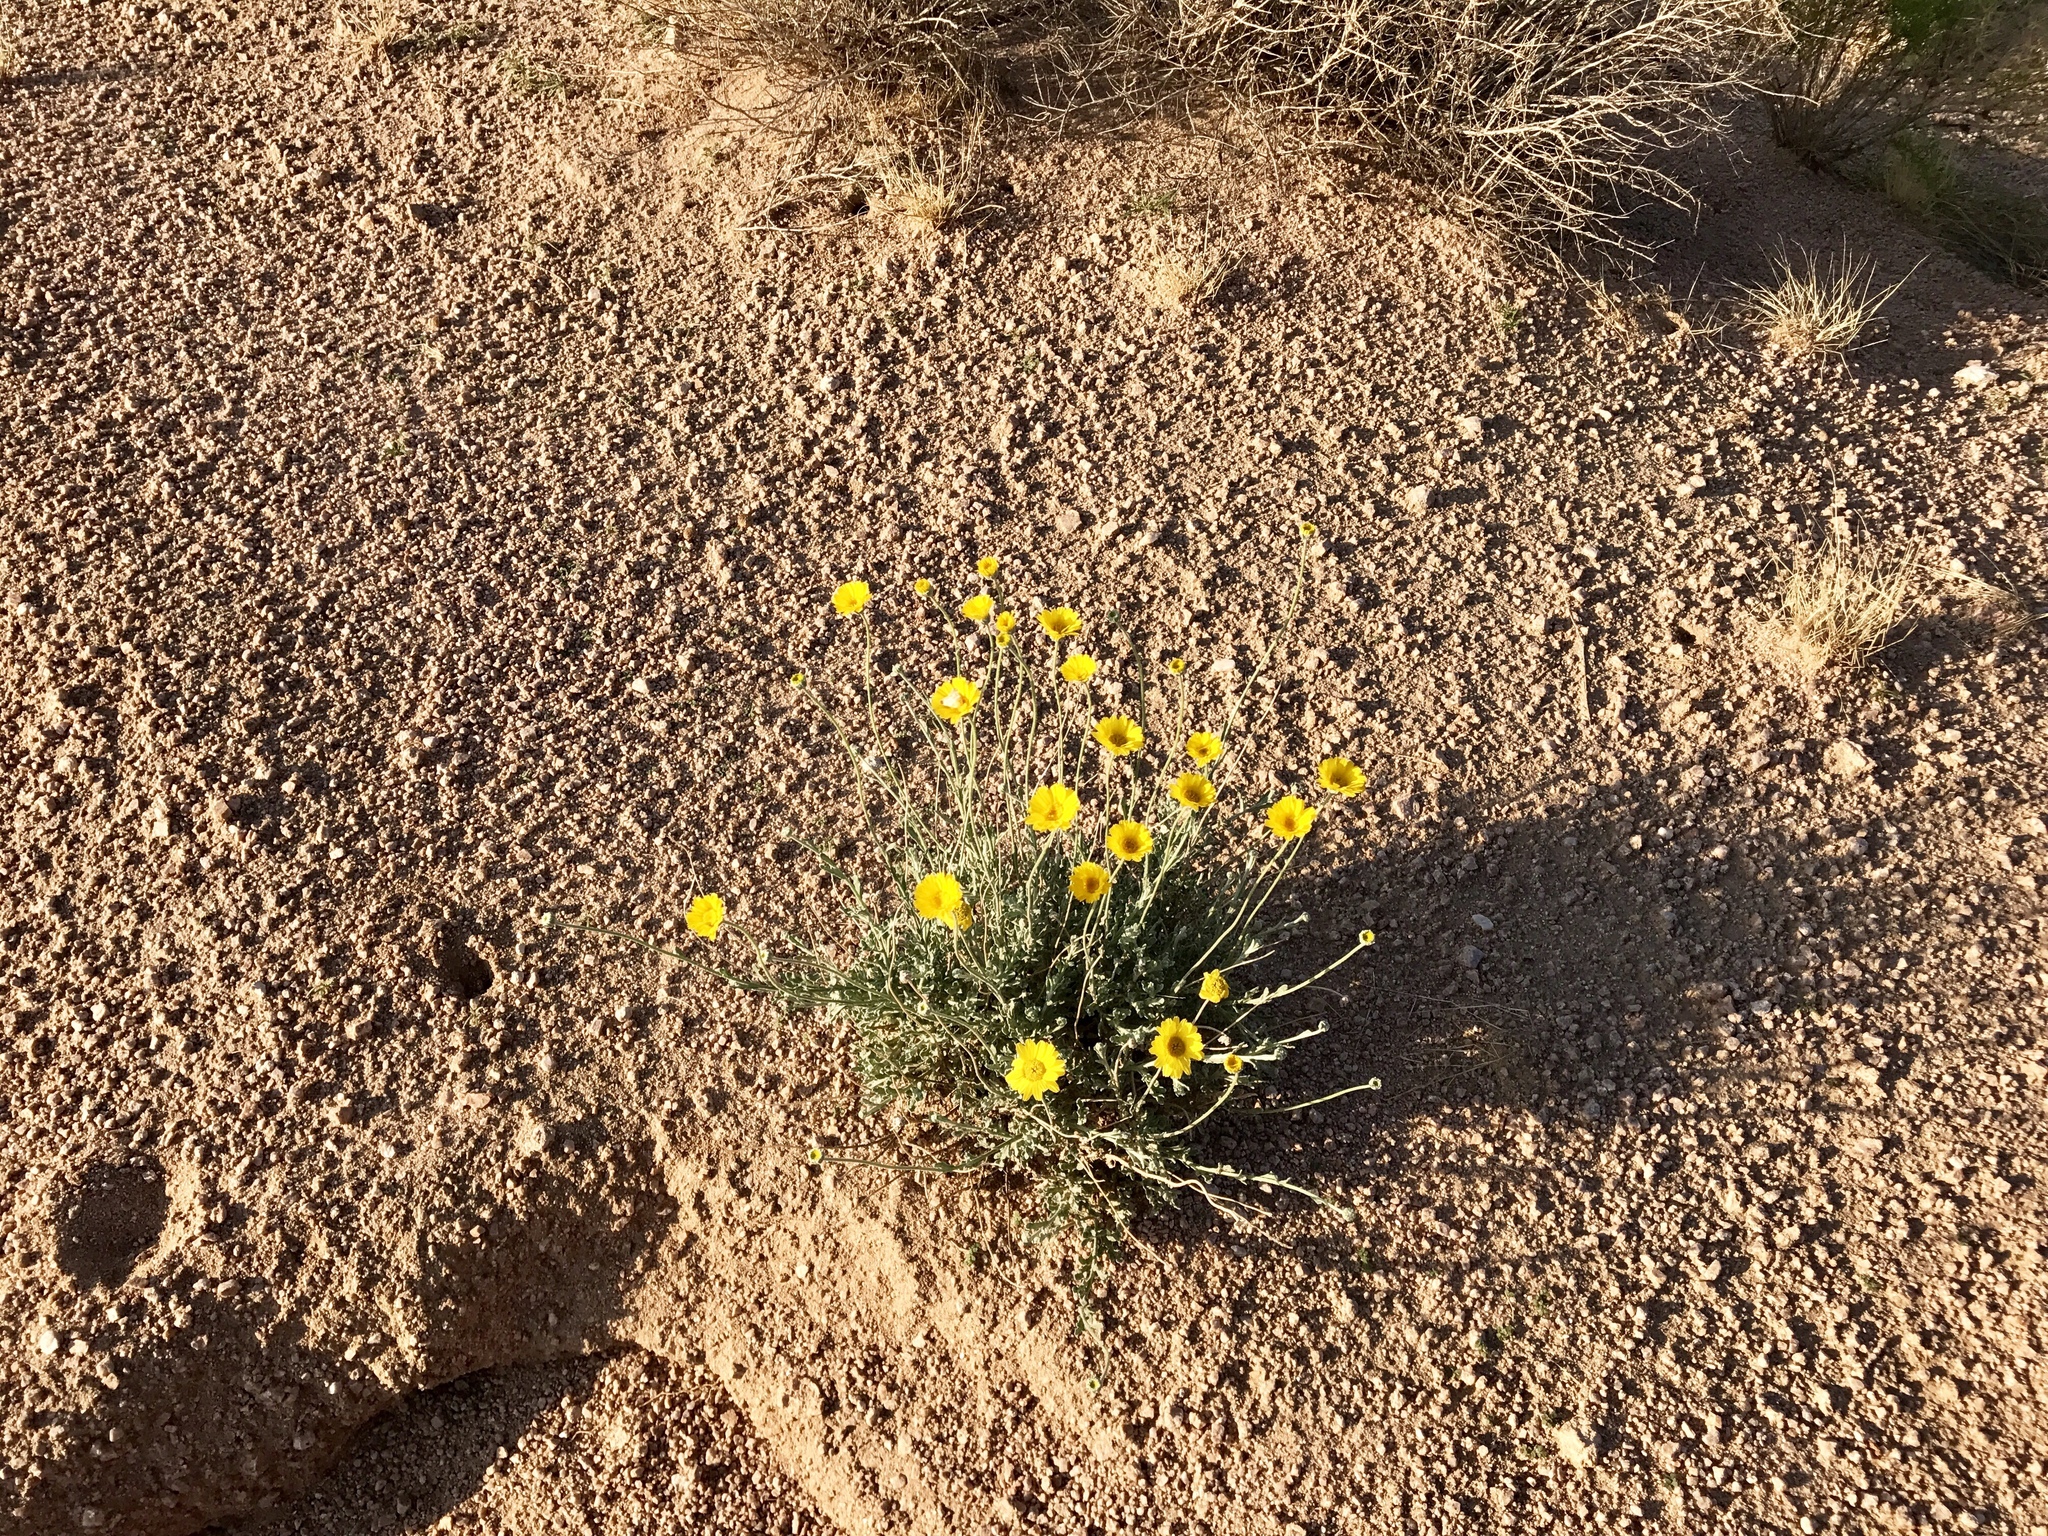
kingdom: Plantae
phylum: Tracheophyta
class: Magnoliopsida
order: Asterales
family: Asteraceae
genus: Baileya
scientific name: Baileya multiradiata
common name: Desert-marigold
